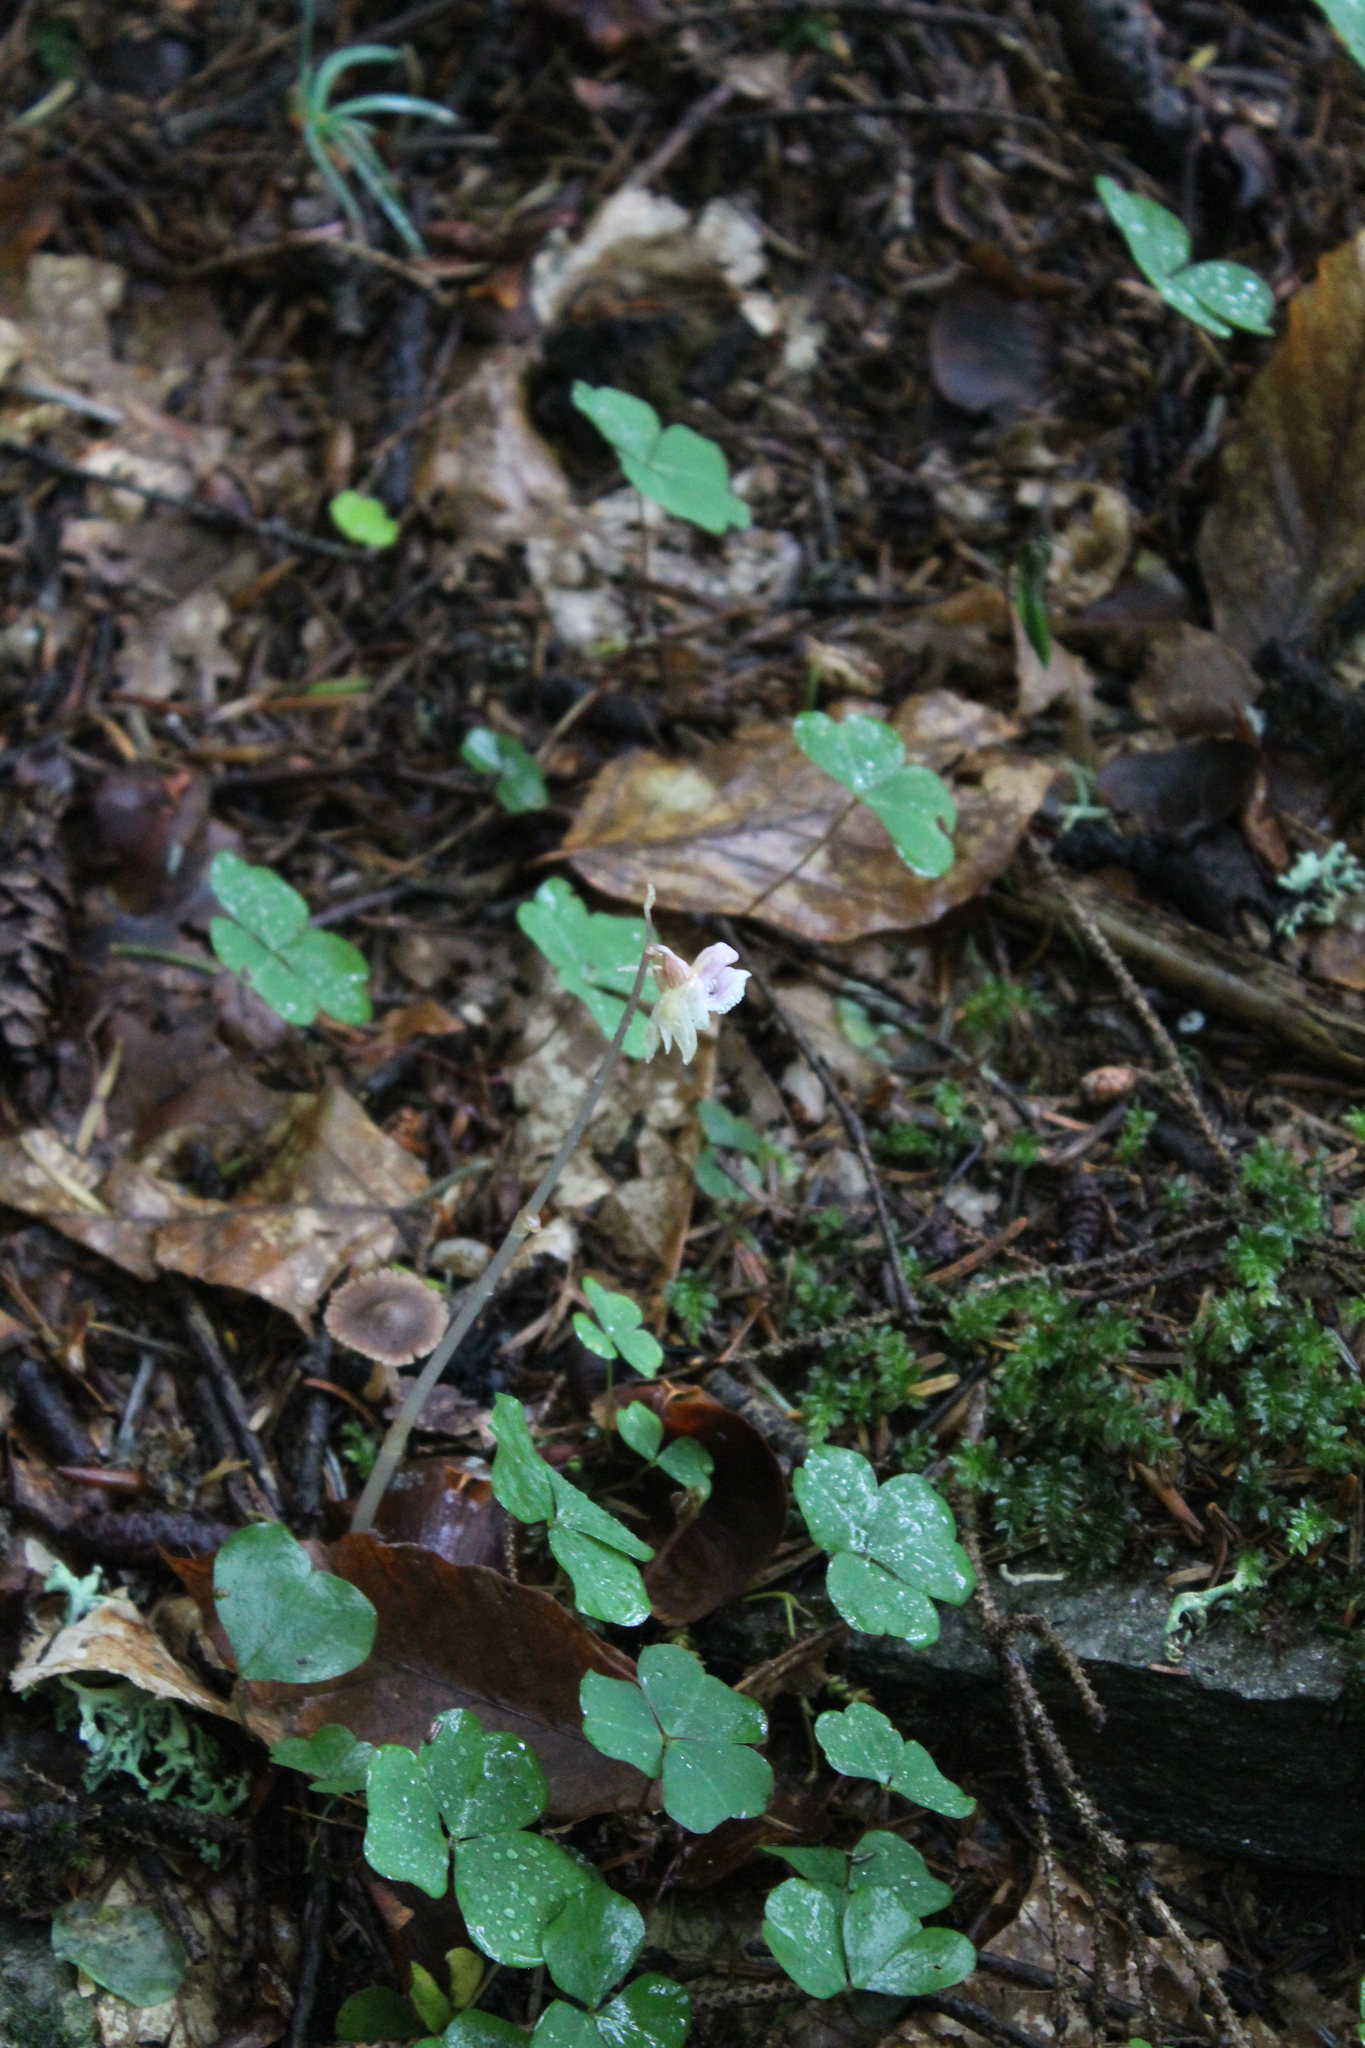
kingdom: Plantae
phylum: Tracheophyta
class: Liliopsida
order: Asparagales
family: Orchidaceae
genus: Epipogium
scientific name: Epipogium aphyllum
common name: Ghost orchid
